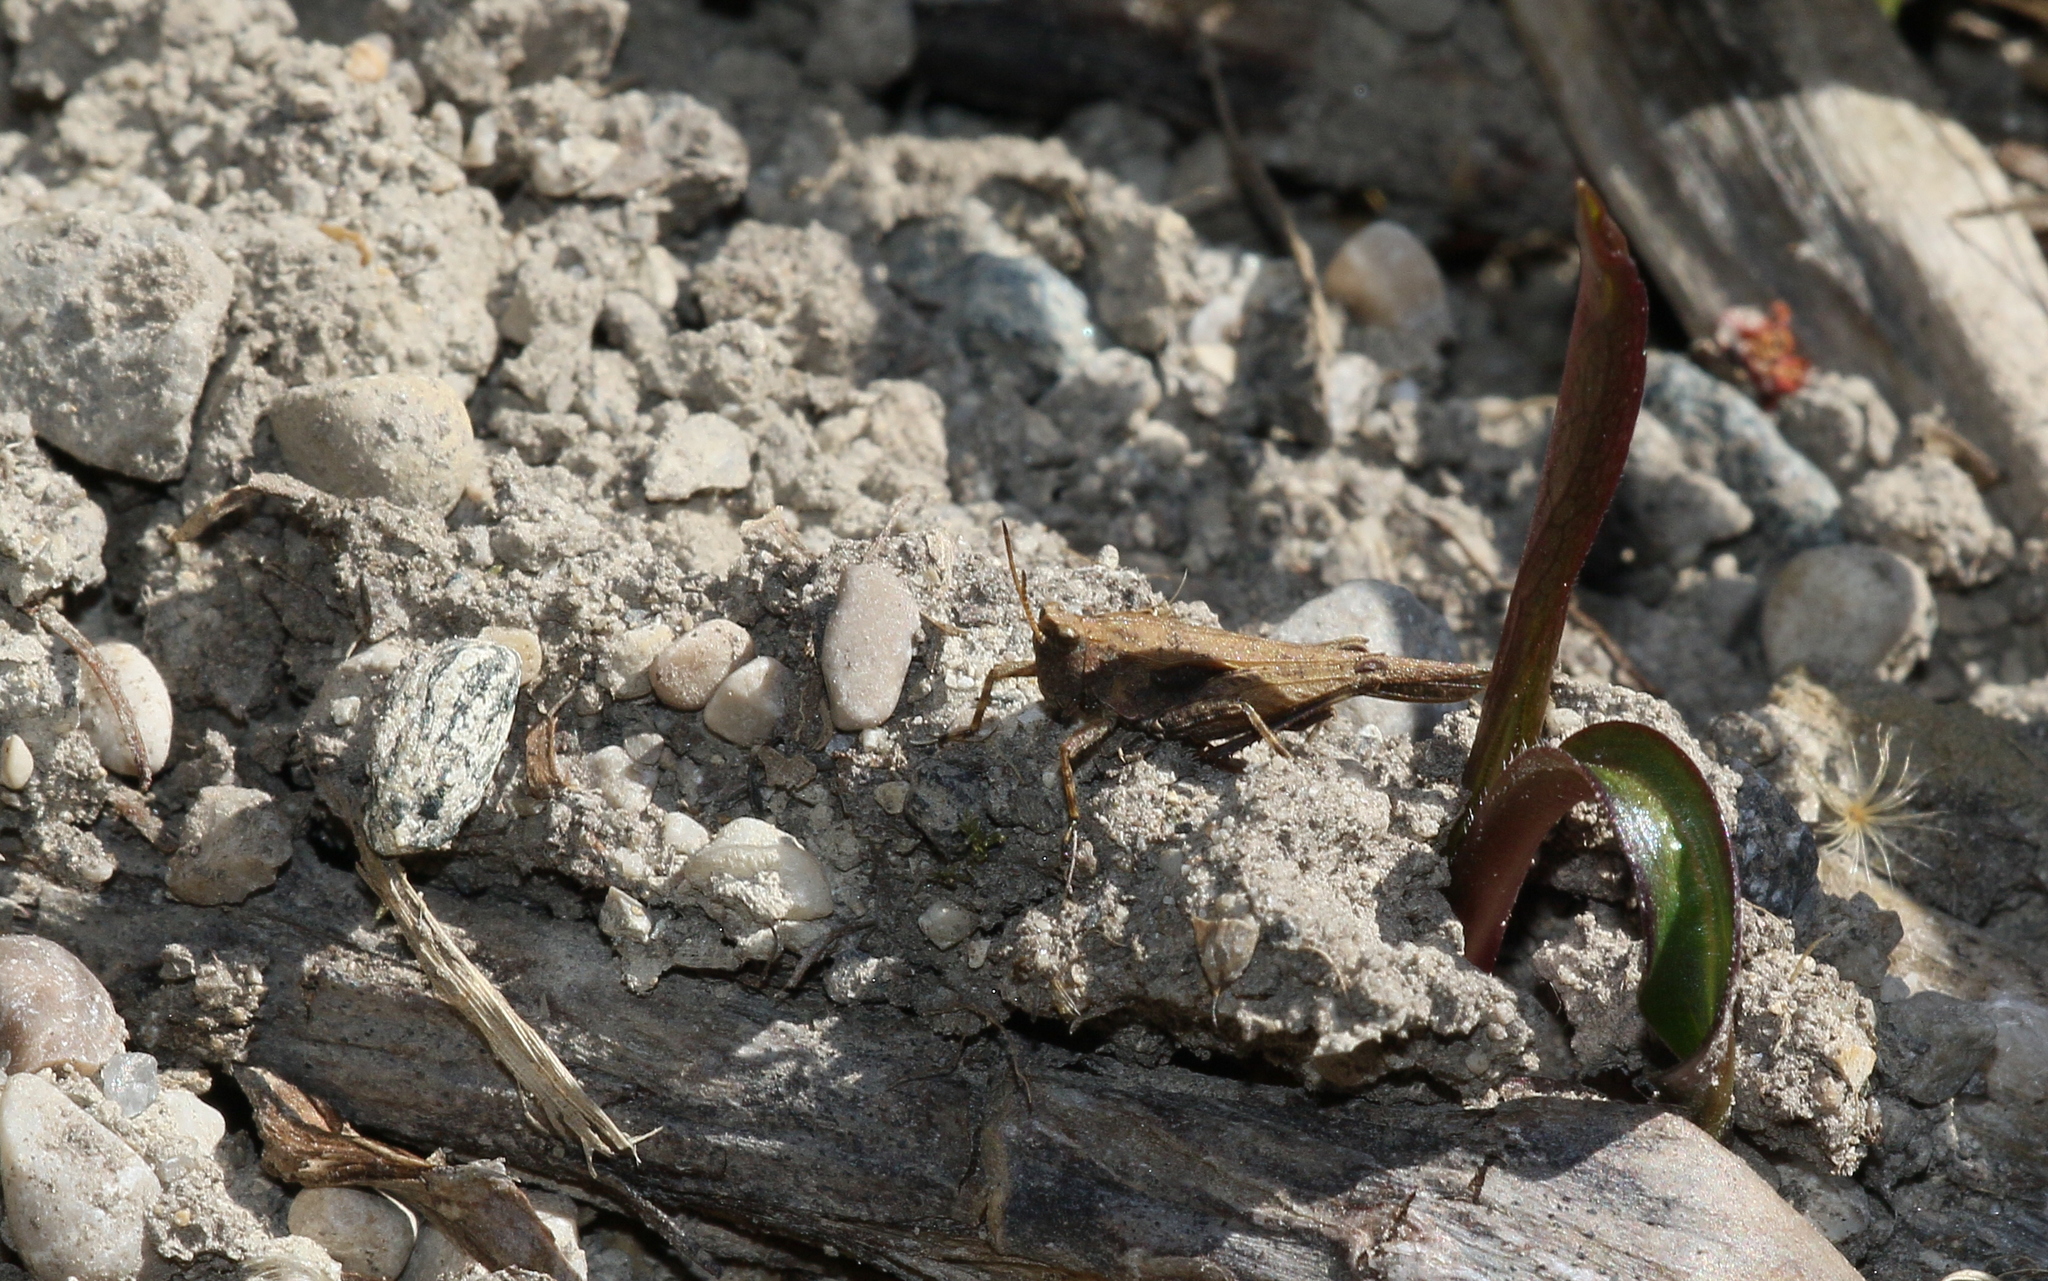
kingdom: Animalia
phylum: Arthropoda
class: Insecta
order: Orthoptera
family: Tetrigidae
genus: Tetrix
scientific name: Tetrix subulata
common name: Slender ground-hopper
